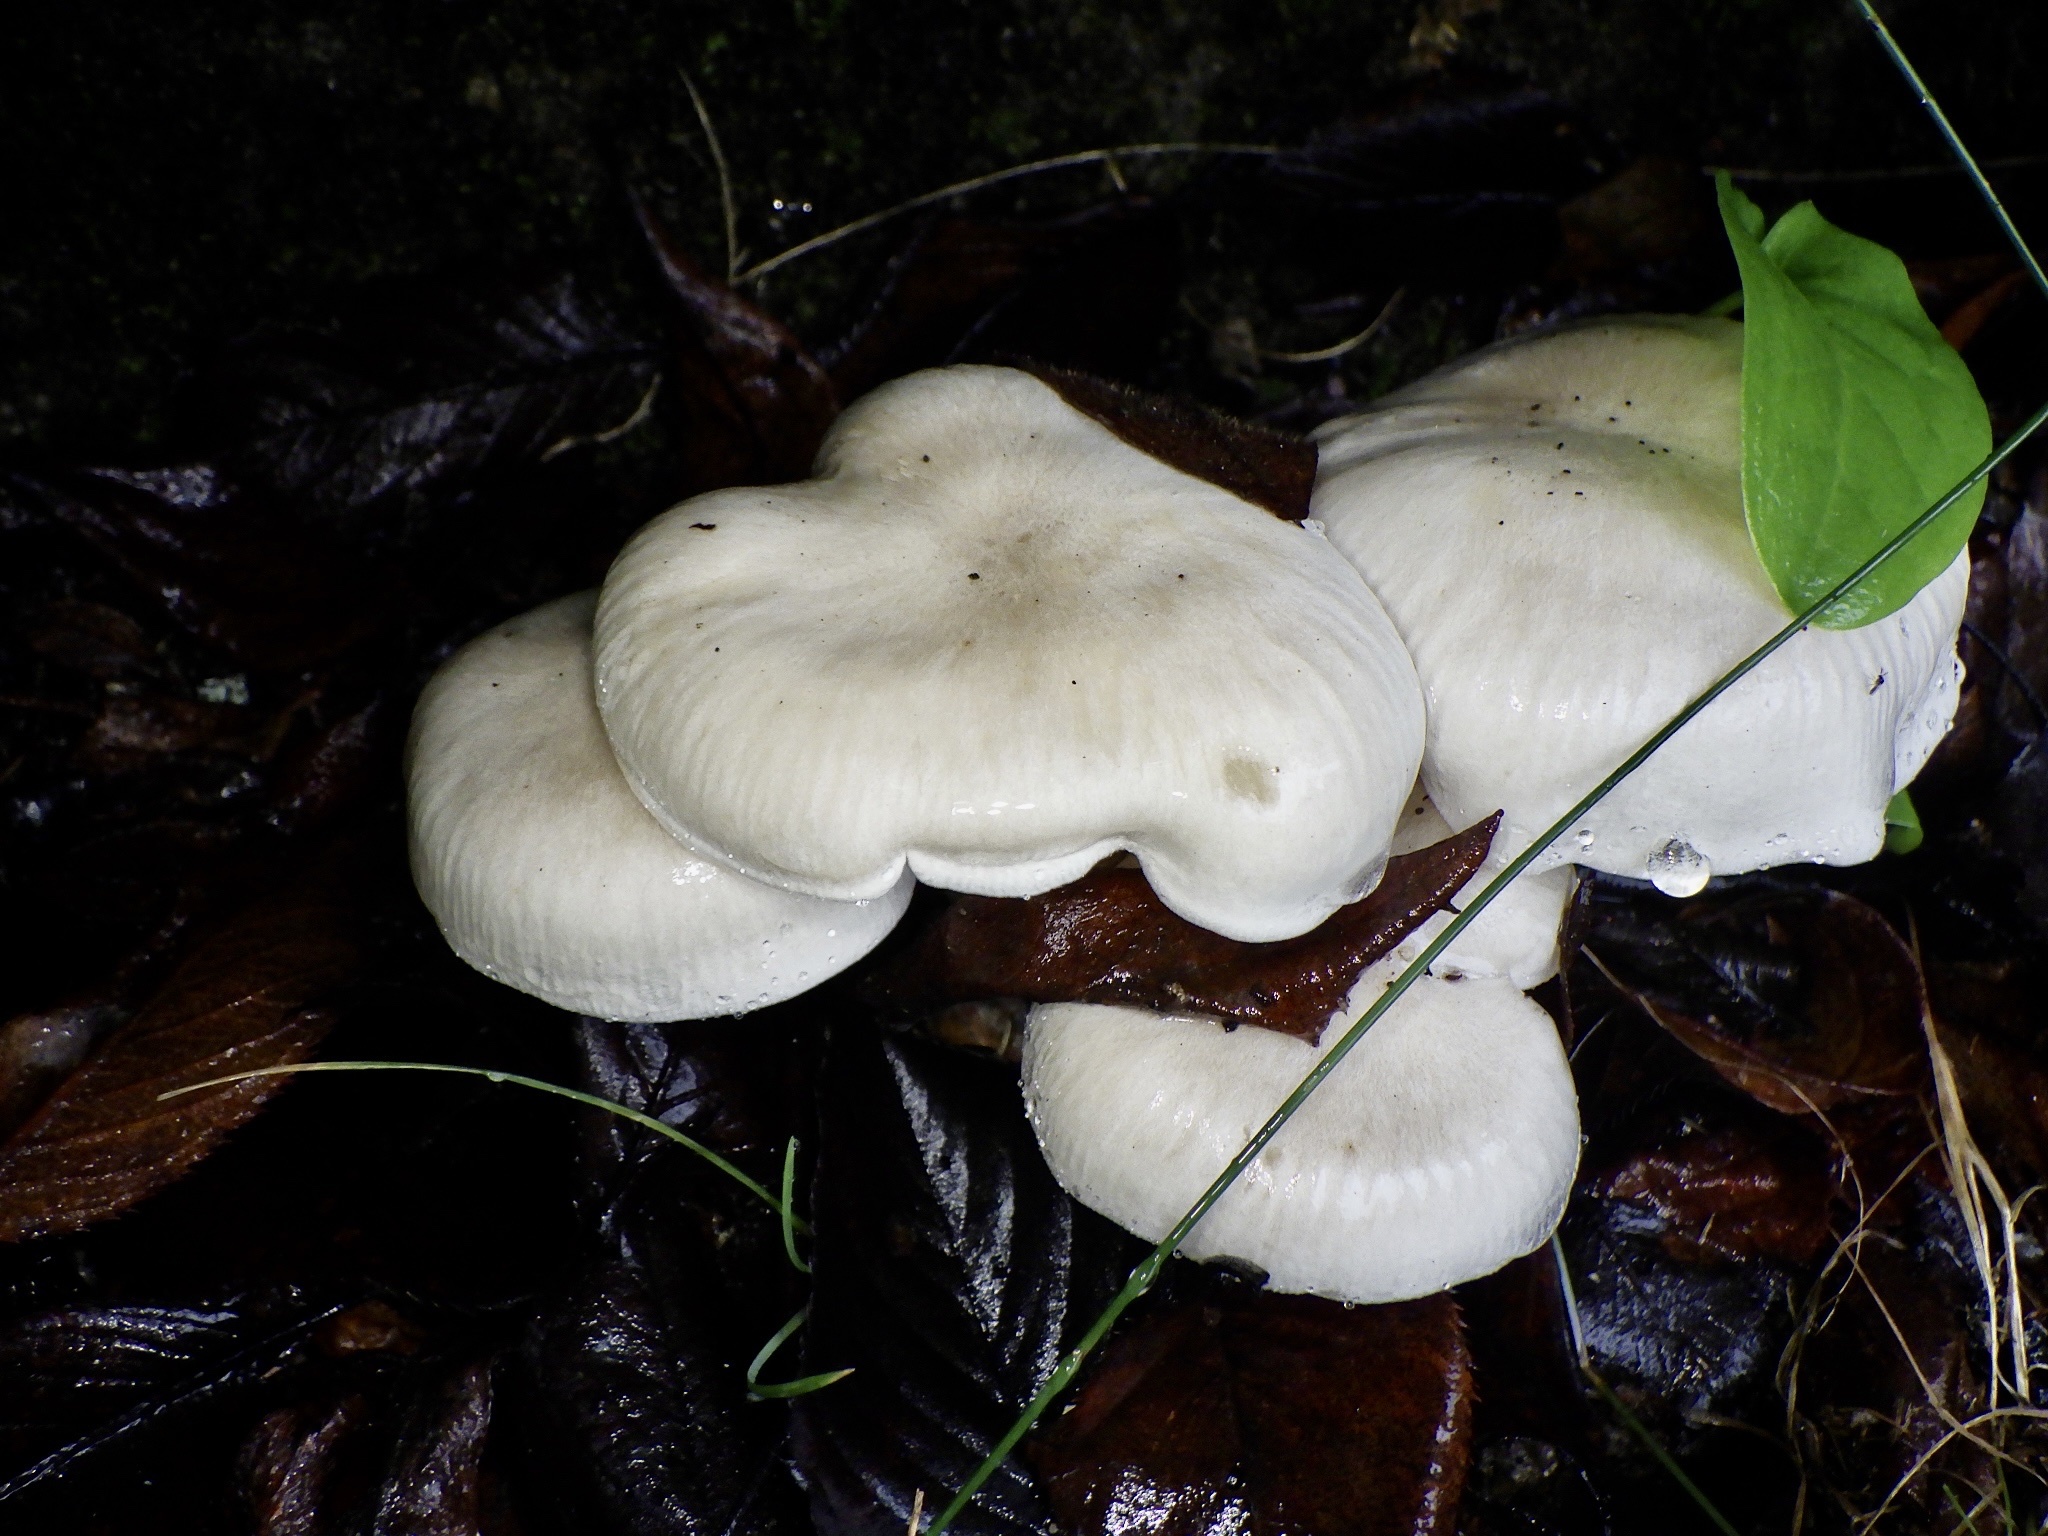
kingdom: Fungi
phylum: Basidiomycota
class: Agaricomycetes
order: Agaricales
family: Tricholomataceae
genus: Clitocybe
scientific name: Clitocybe nebularis
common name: Clouded agaric
